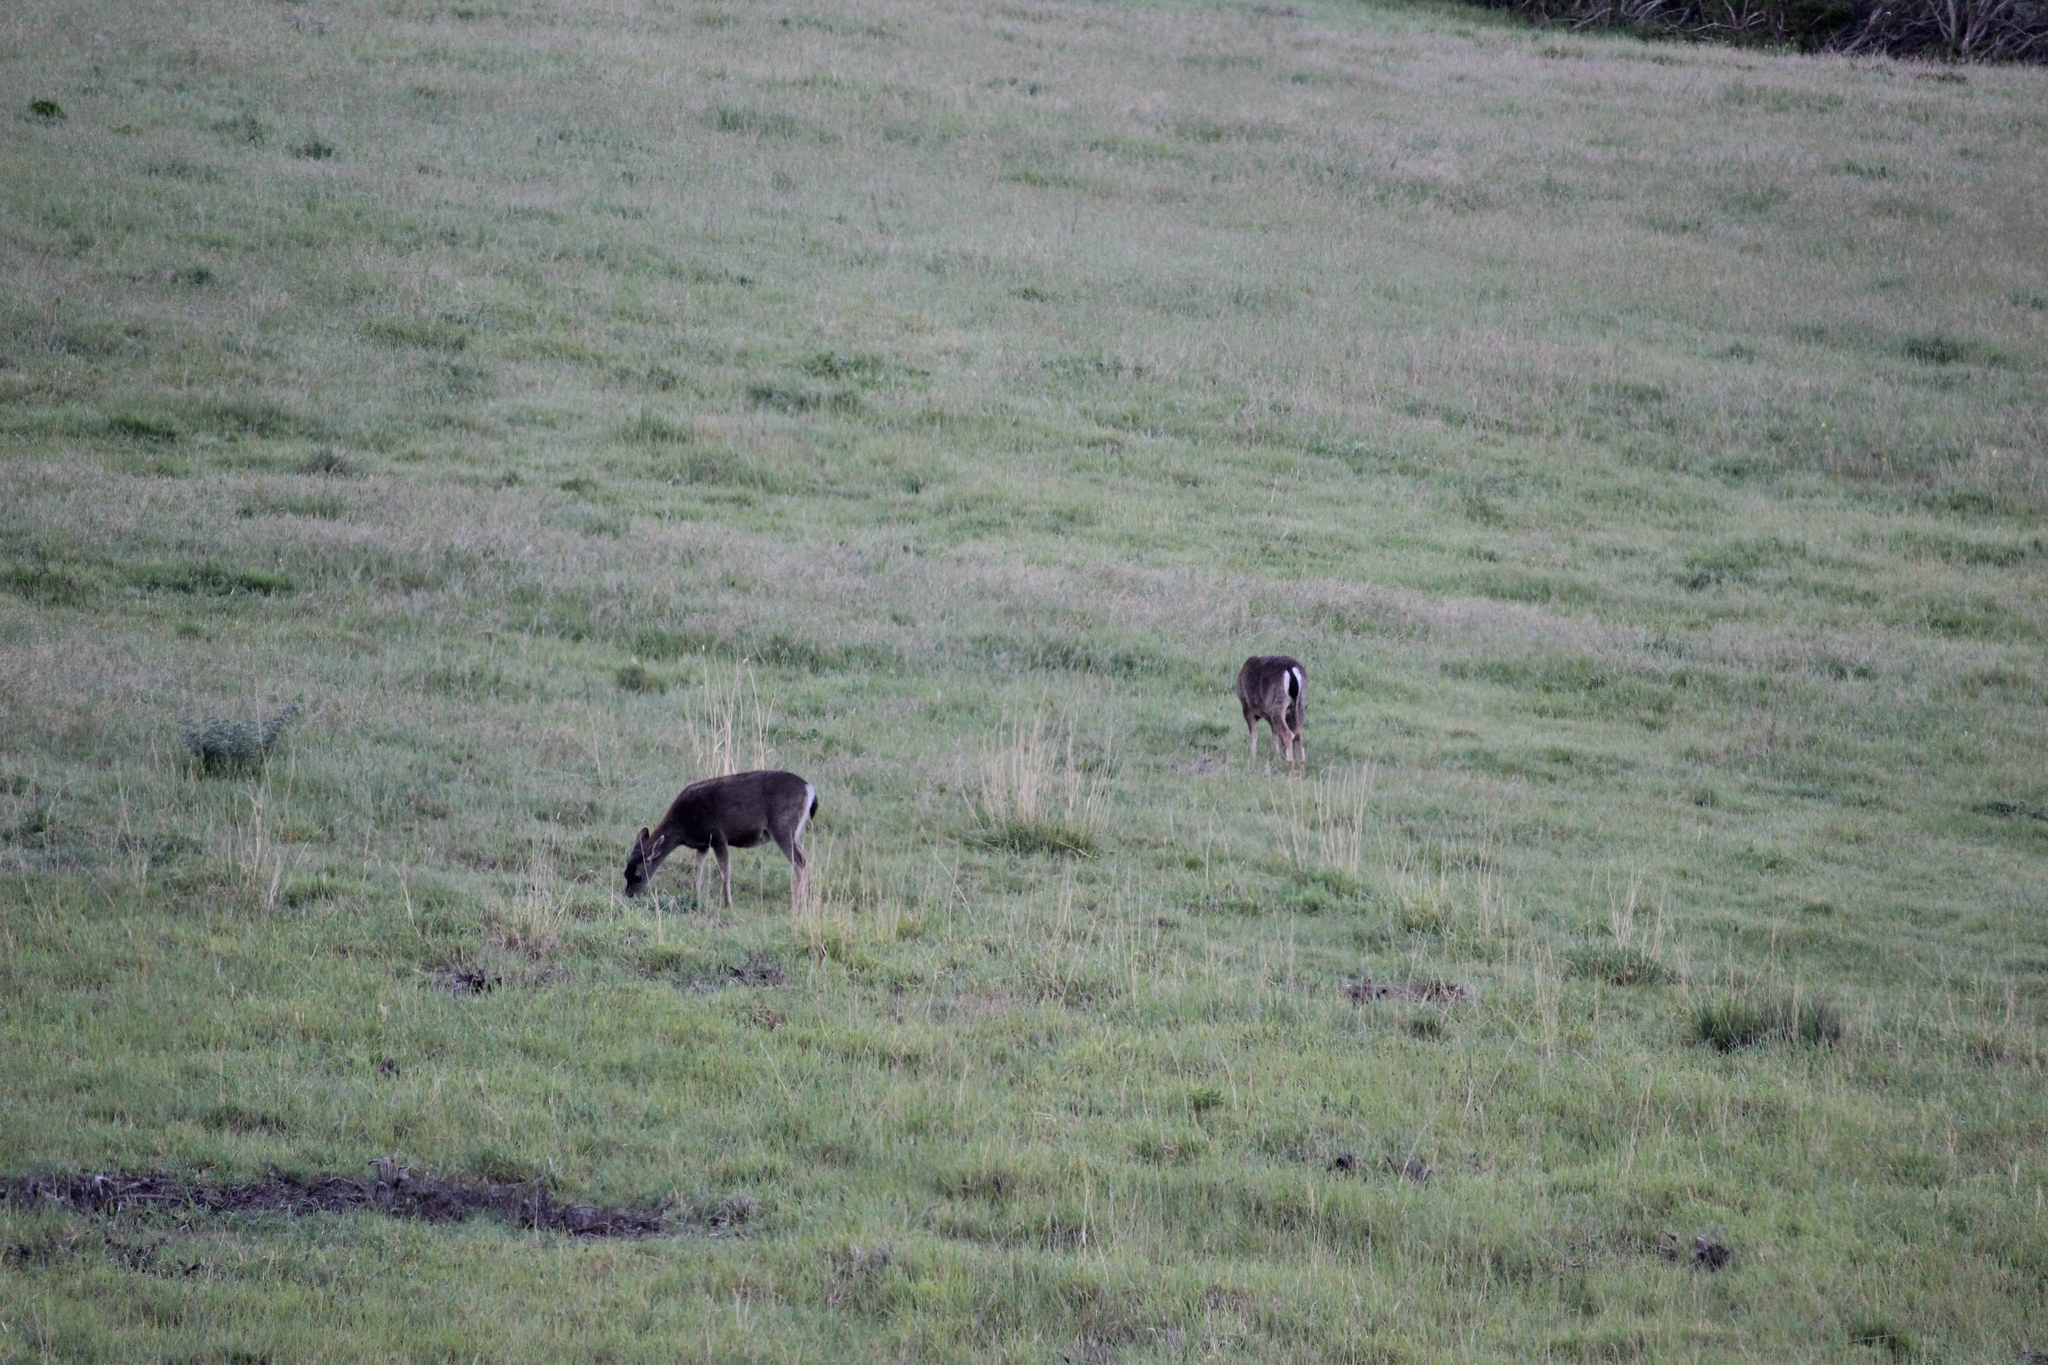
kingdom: Animalia
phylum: Chordata
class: Mammalia
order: Artiodactyla
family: Cervidae
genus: Odocoileus
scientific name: Odocoileus hemionus
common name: Mule deer
